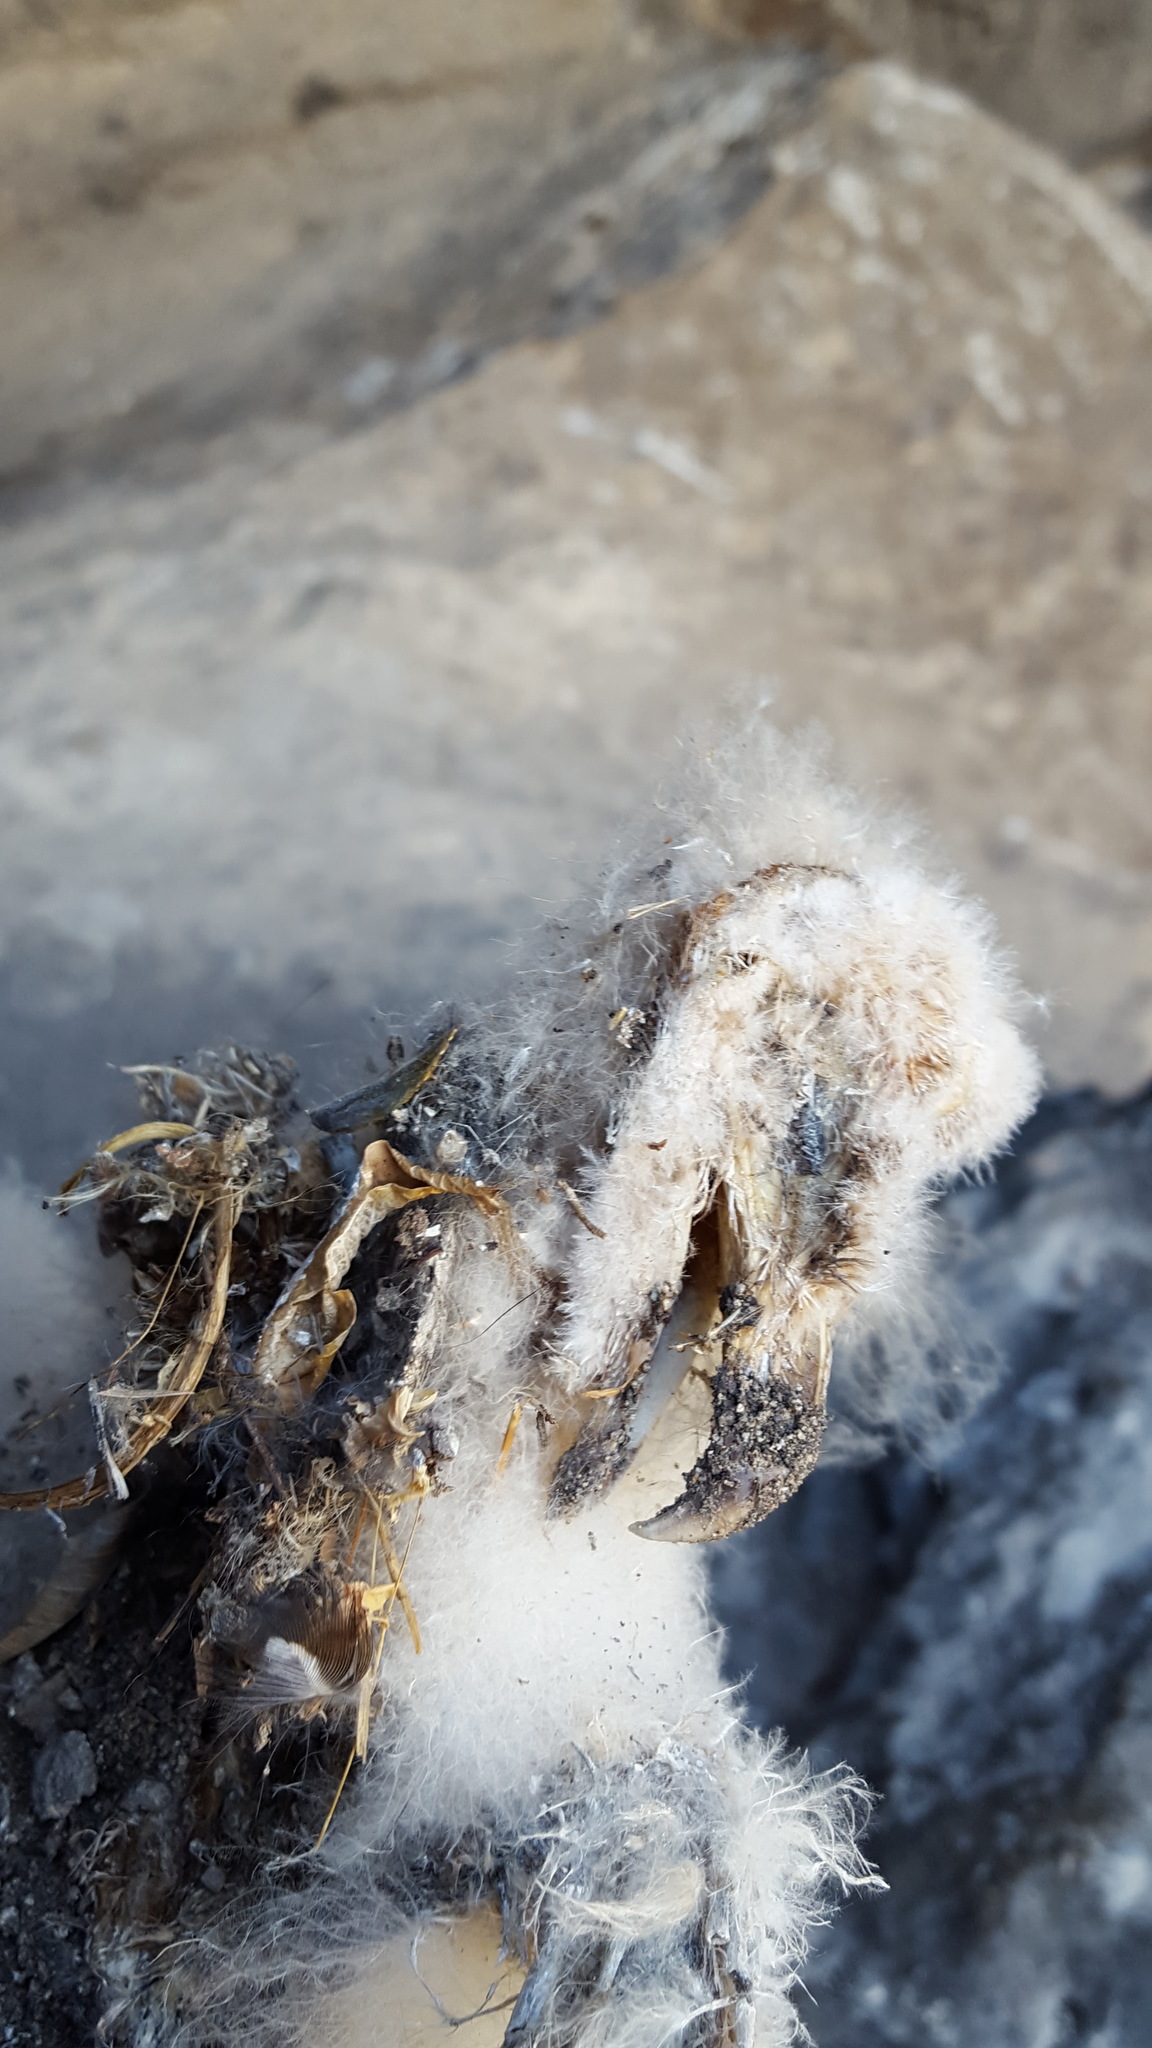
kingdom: Animalia
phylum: Chordata
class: Aves
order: Strigiformes
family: Tytonidae
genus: Tyto
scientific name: Tyto alba
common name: Barn owl
